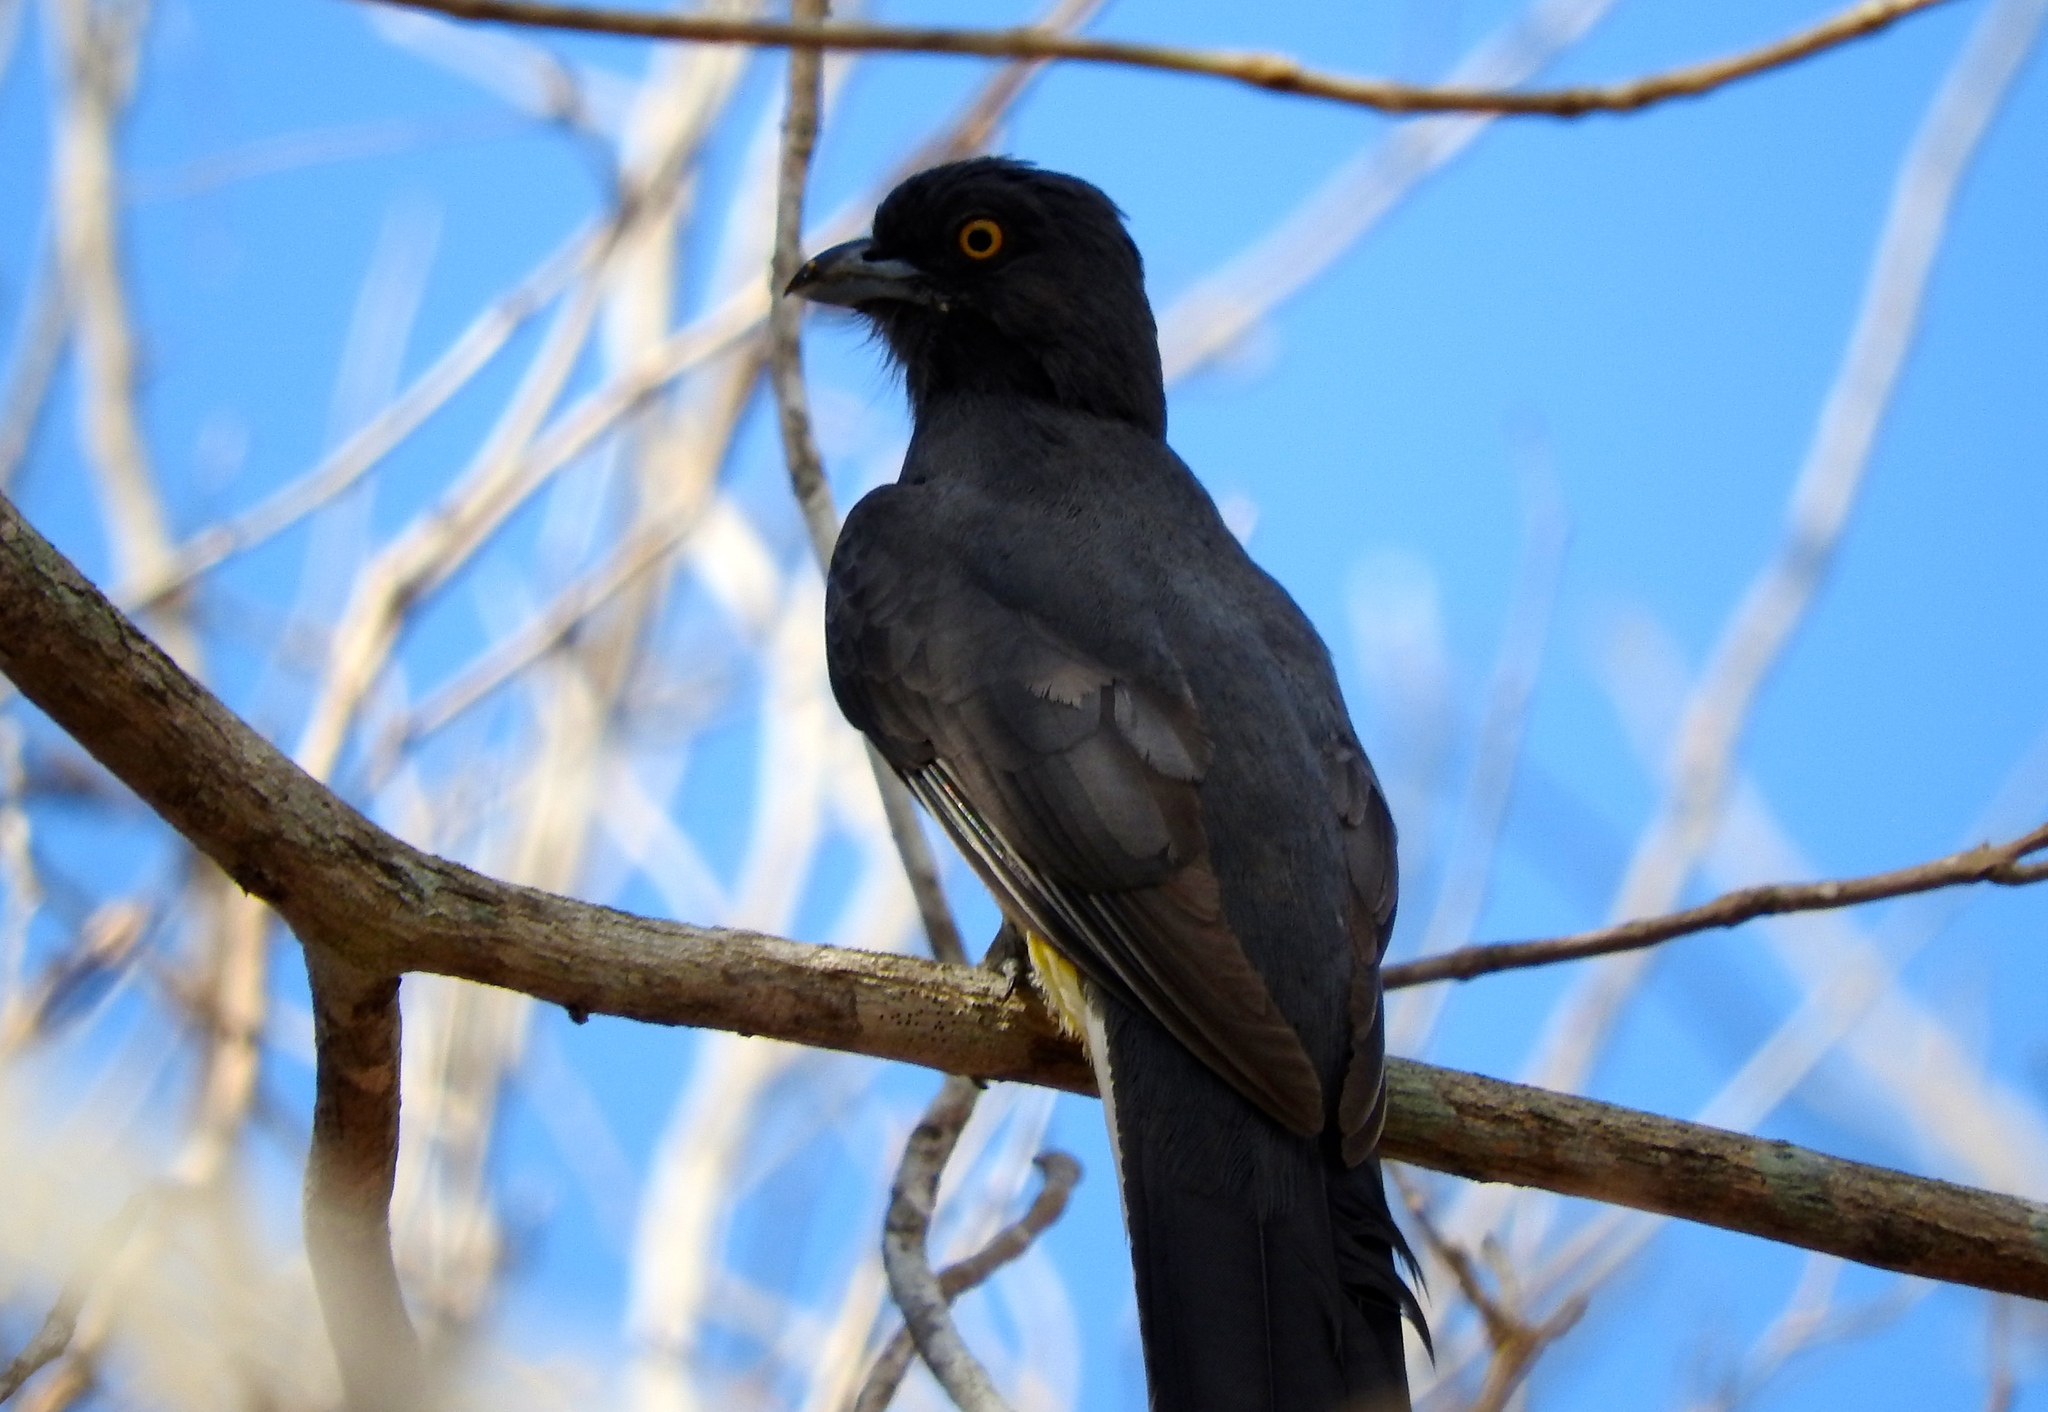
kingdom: Animalia
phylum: Chordata
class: Aves
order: Trogoniformes
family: Trogonidae
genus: Trogon
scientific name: Trogon citreolus
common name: Citreoline trogon
